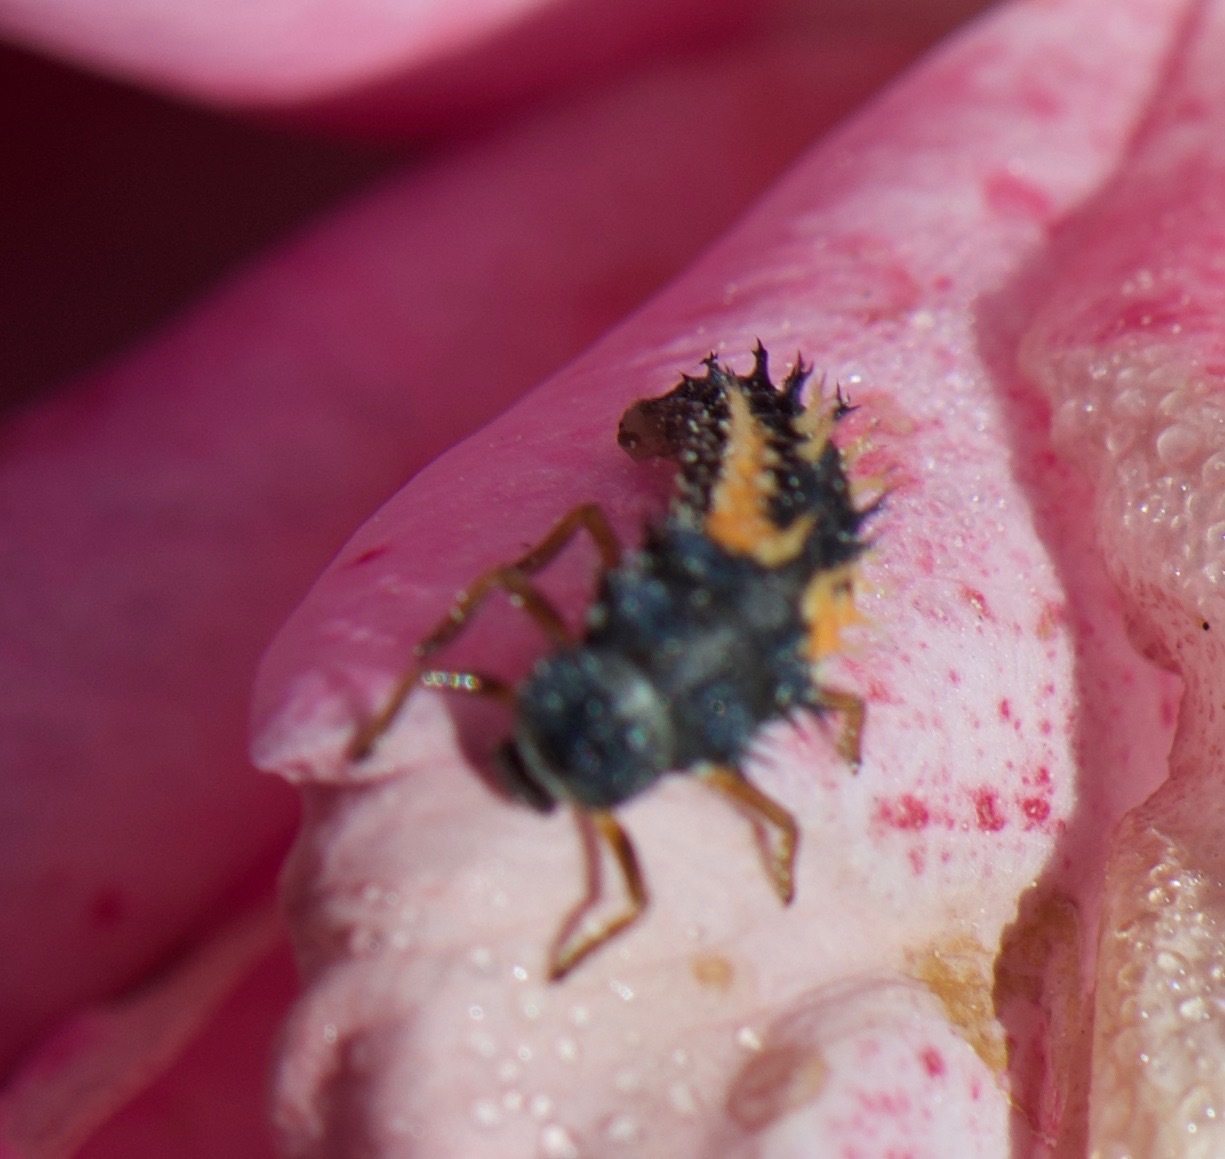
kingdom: Animalia
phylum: Arthropoda
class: Insecta
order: Coleoptera
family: Coccinellidae
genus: Harmonia
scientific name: Harmonia axyridis
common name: Harlequin ladybird
